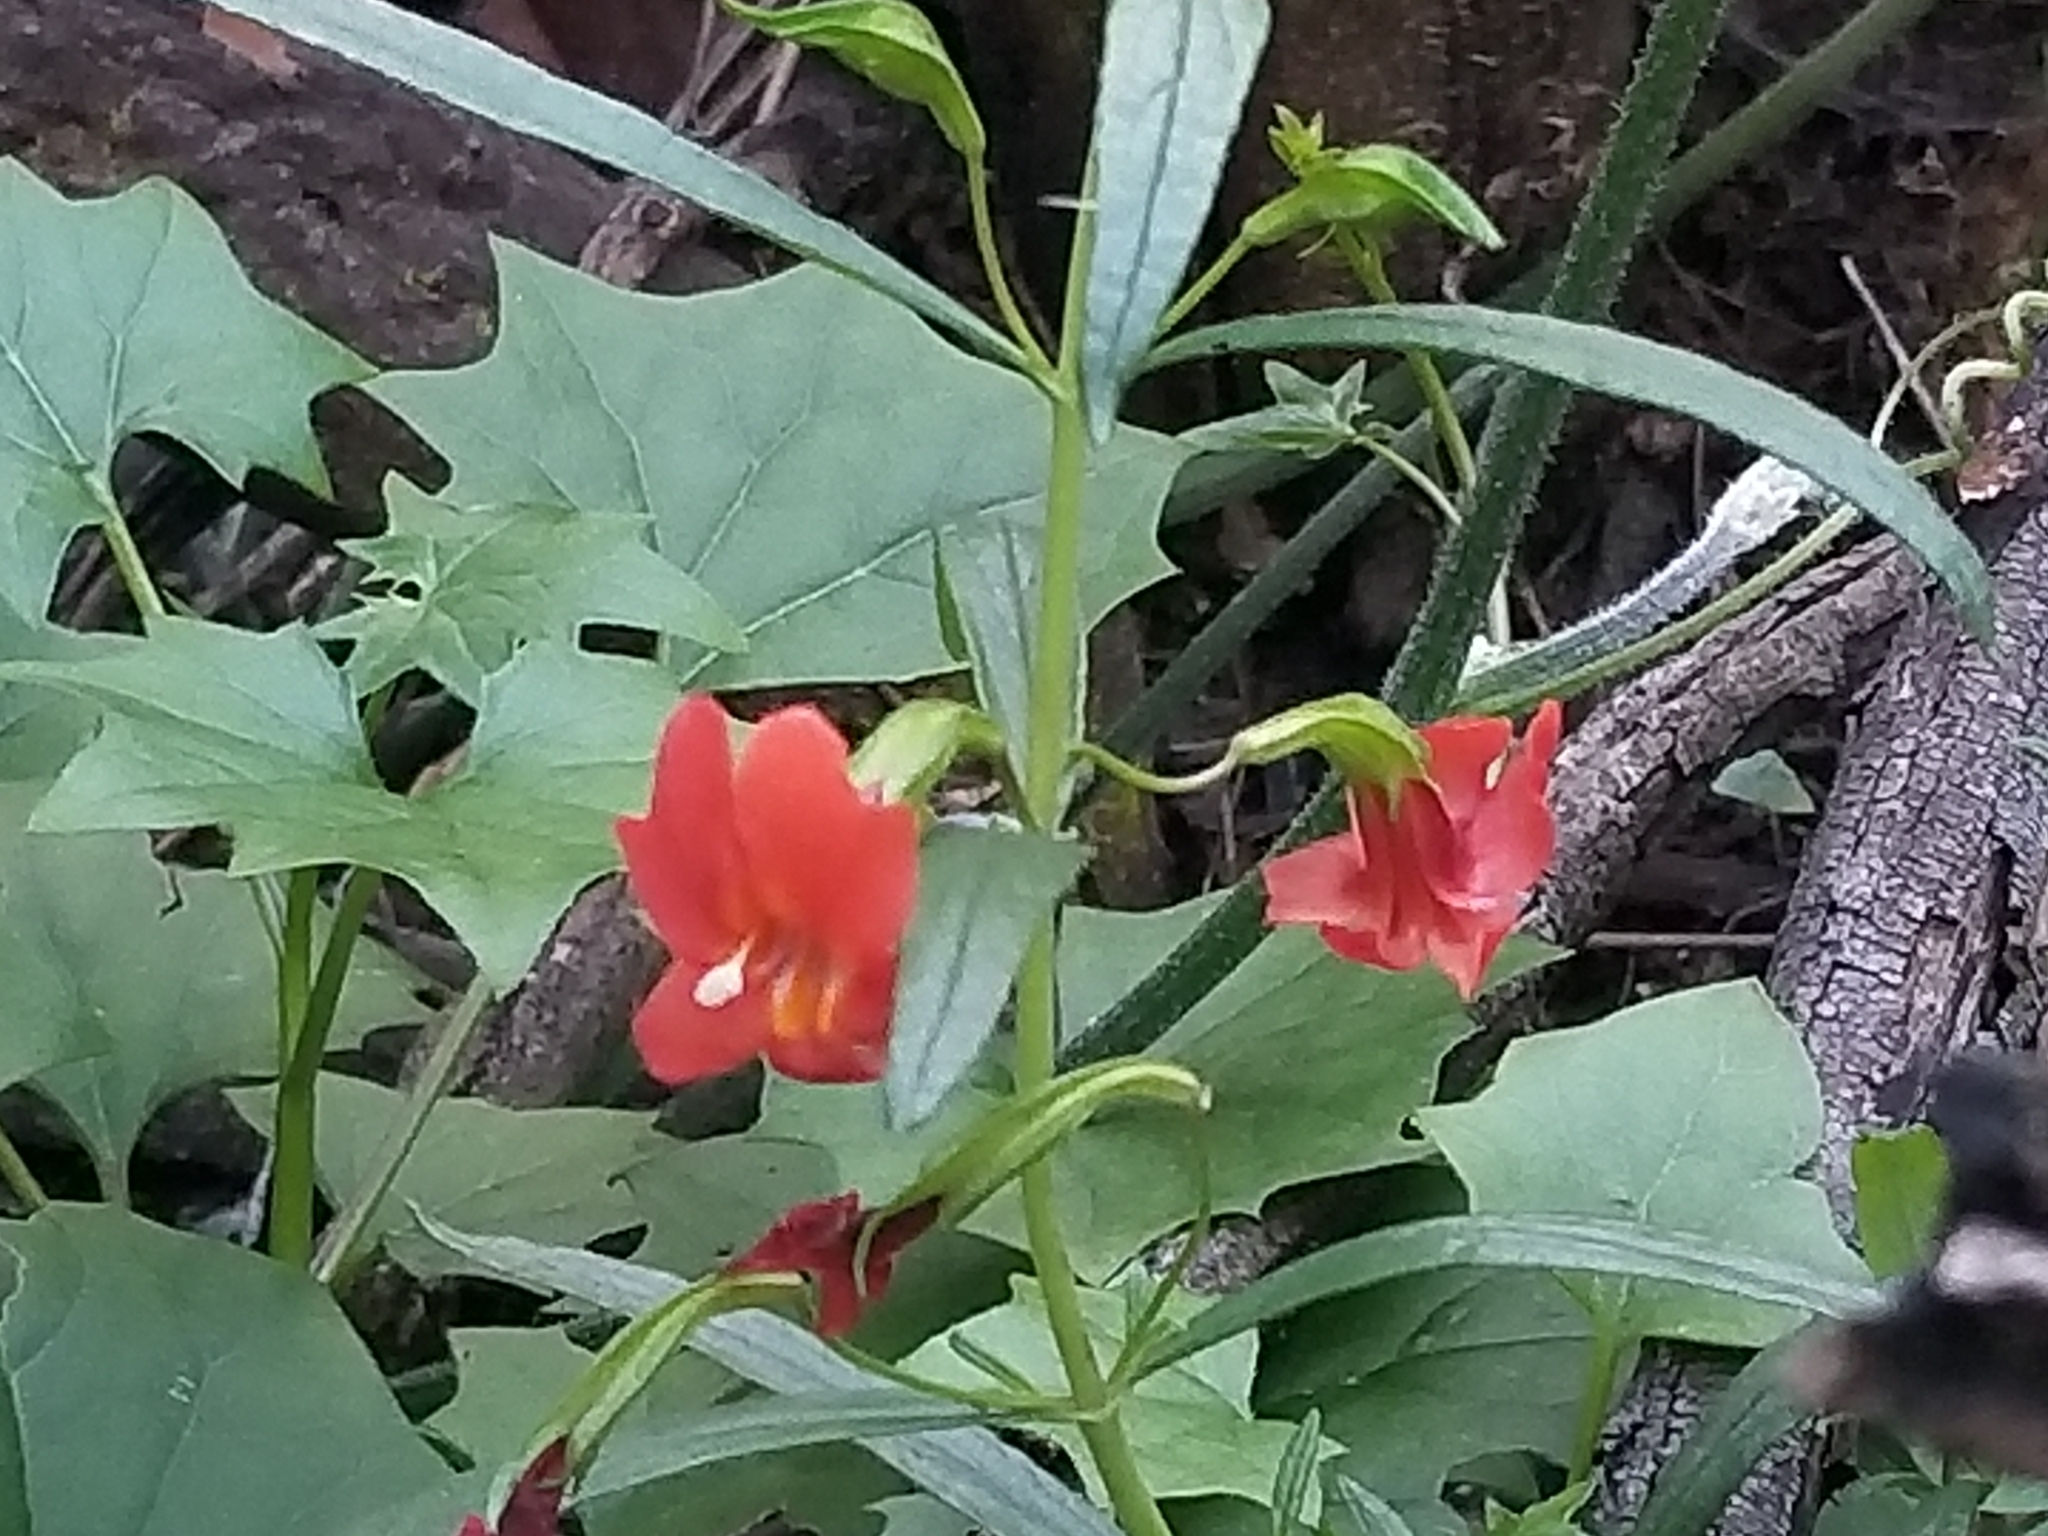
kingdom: Plantae
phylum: Tracheophyta
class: Magnoliopsida
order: Lamiales
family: Phrymaceae
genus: Diplacus
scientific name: Diplacus puniceus
